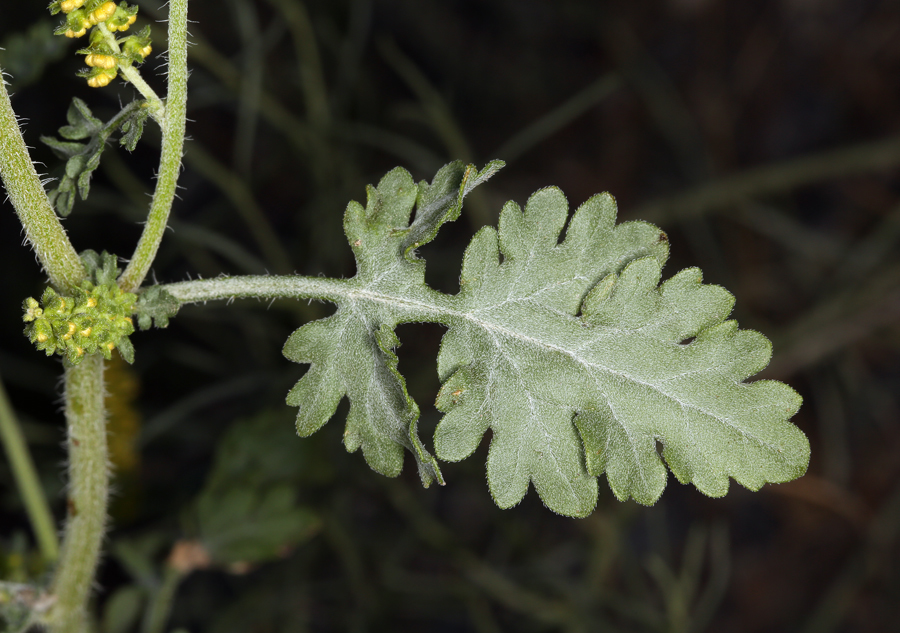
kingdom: Plantae
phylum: Tracheophyta
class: Magnoliopsida
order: Asterales
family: Asteraceae
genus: Ambrosia
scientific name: Ambrosia acanthicarpa
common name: Hooker's bur ragweed
